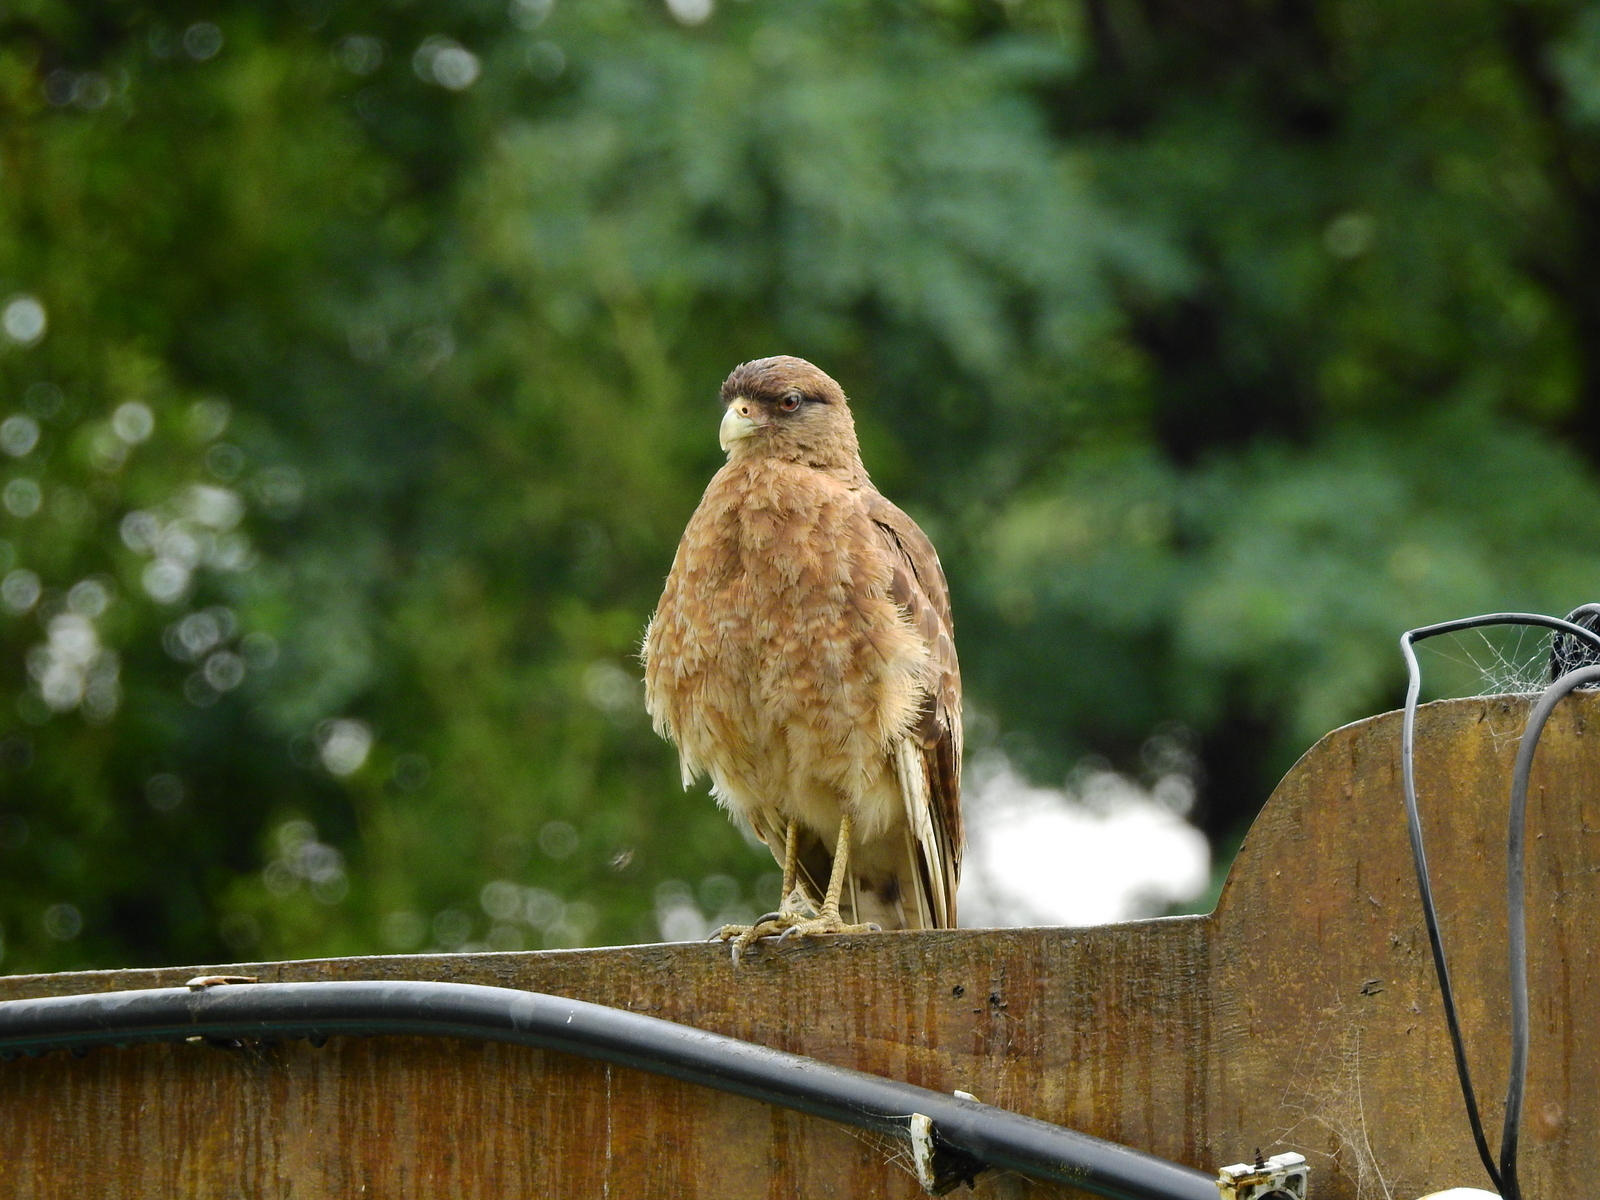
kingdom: Animalia
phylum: Chordata
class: Aves
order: Falconiformes
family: Falconidae
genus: Daptrius
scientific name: Daptrius
